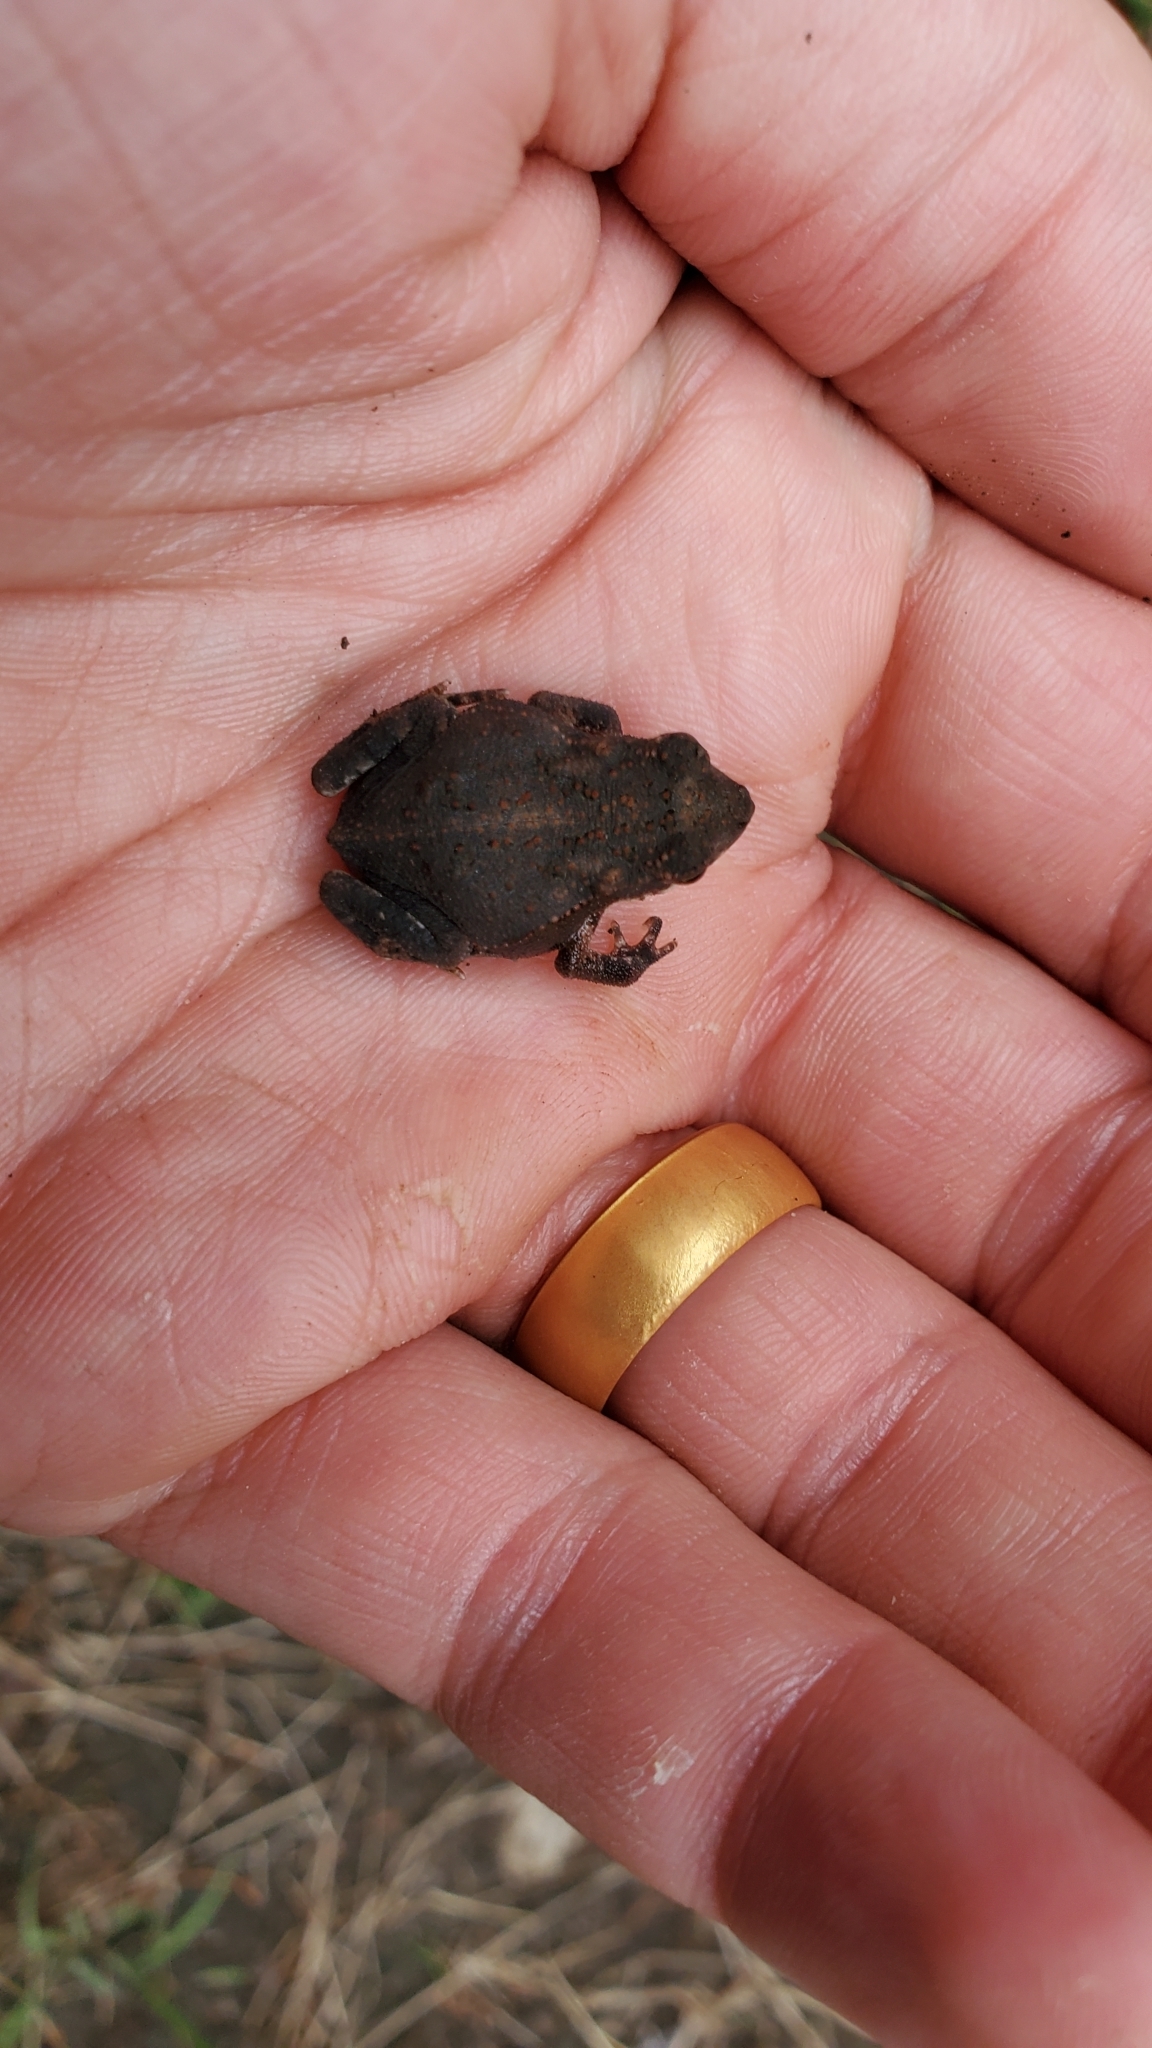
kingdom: Animalia
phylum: Chordata
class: Amphibia
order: Anura
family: Bufonidae
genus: Incilius
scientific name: Incilius nebulifer
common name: Gulf coast toad
